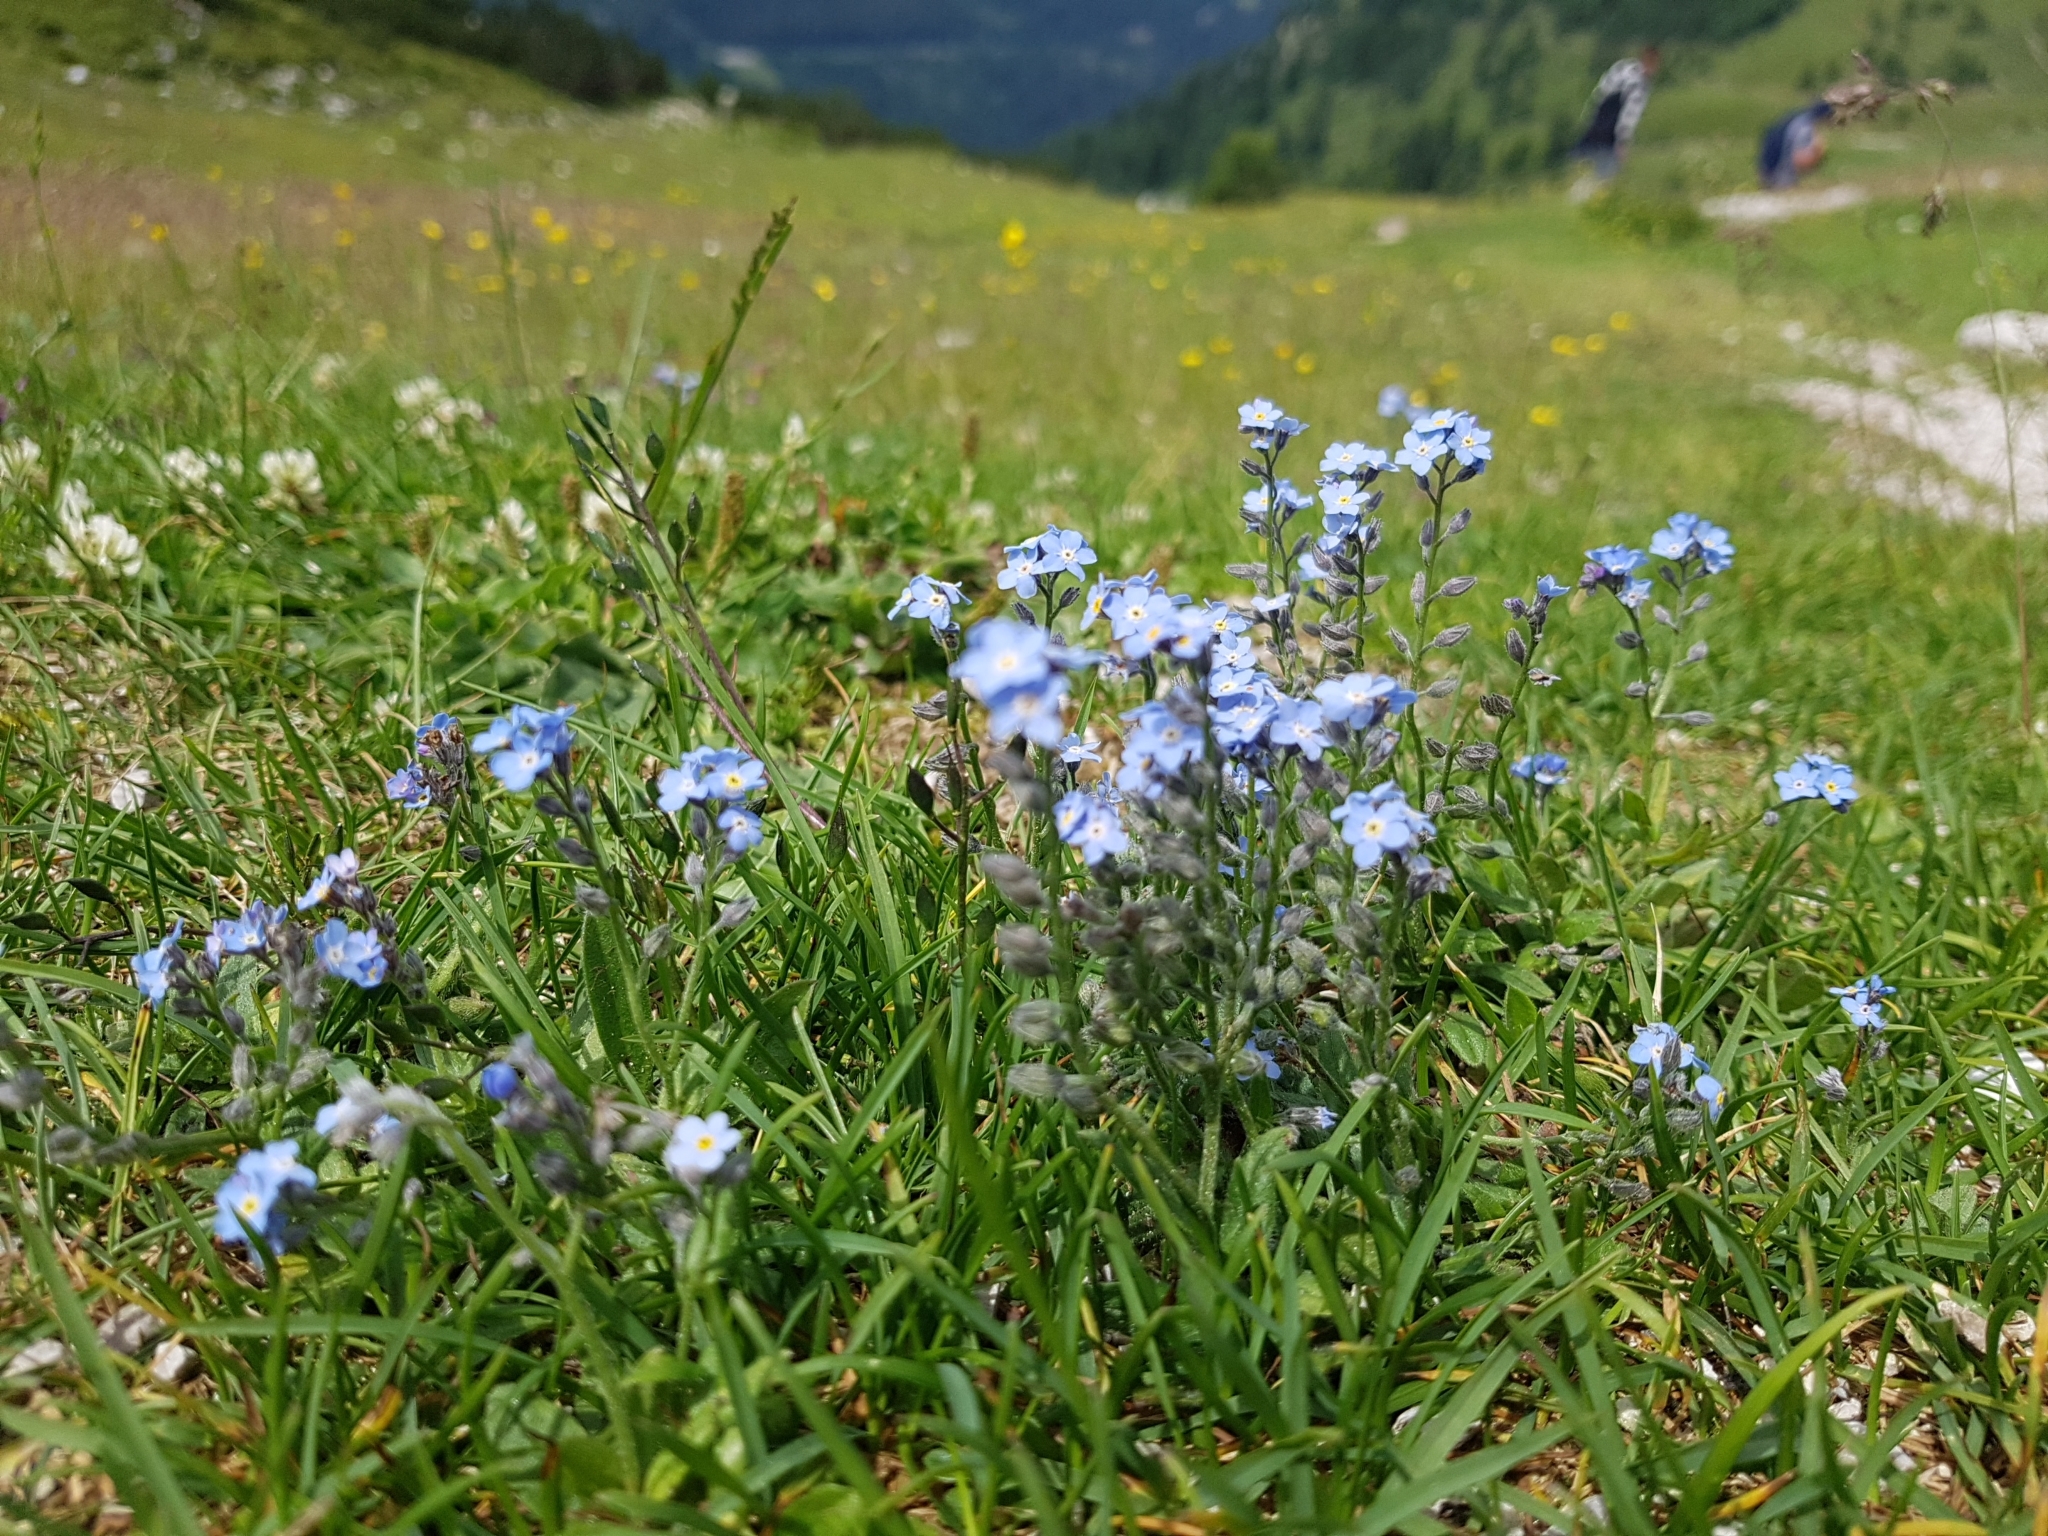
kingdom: Plantae
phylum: Tracheophyta
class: Magnoliopsida
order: Boraginales
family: Boraginaceae
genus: Myosotis
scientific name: Myosotis alpestris
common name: Alpine forget-me-not
